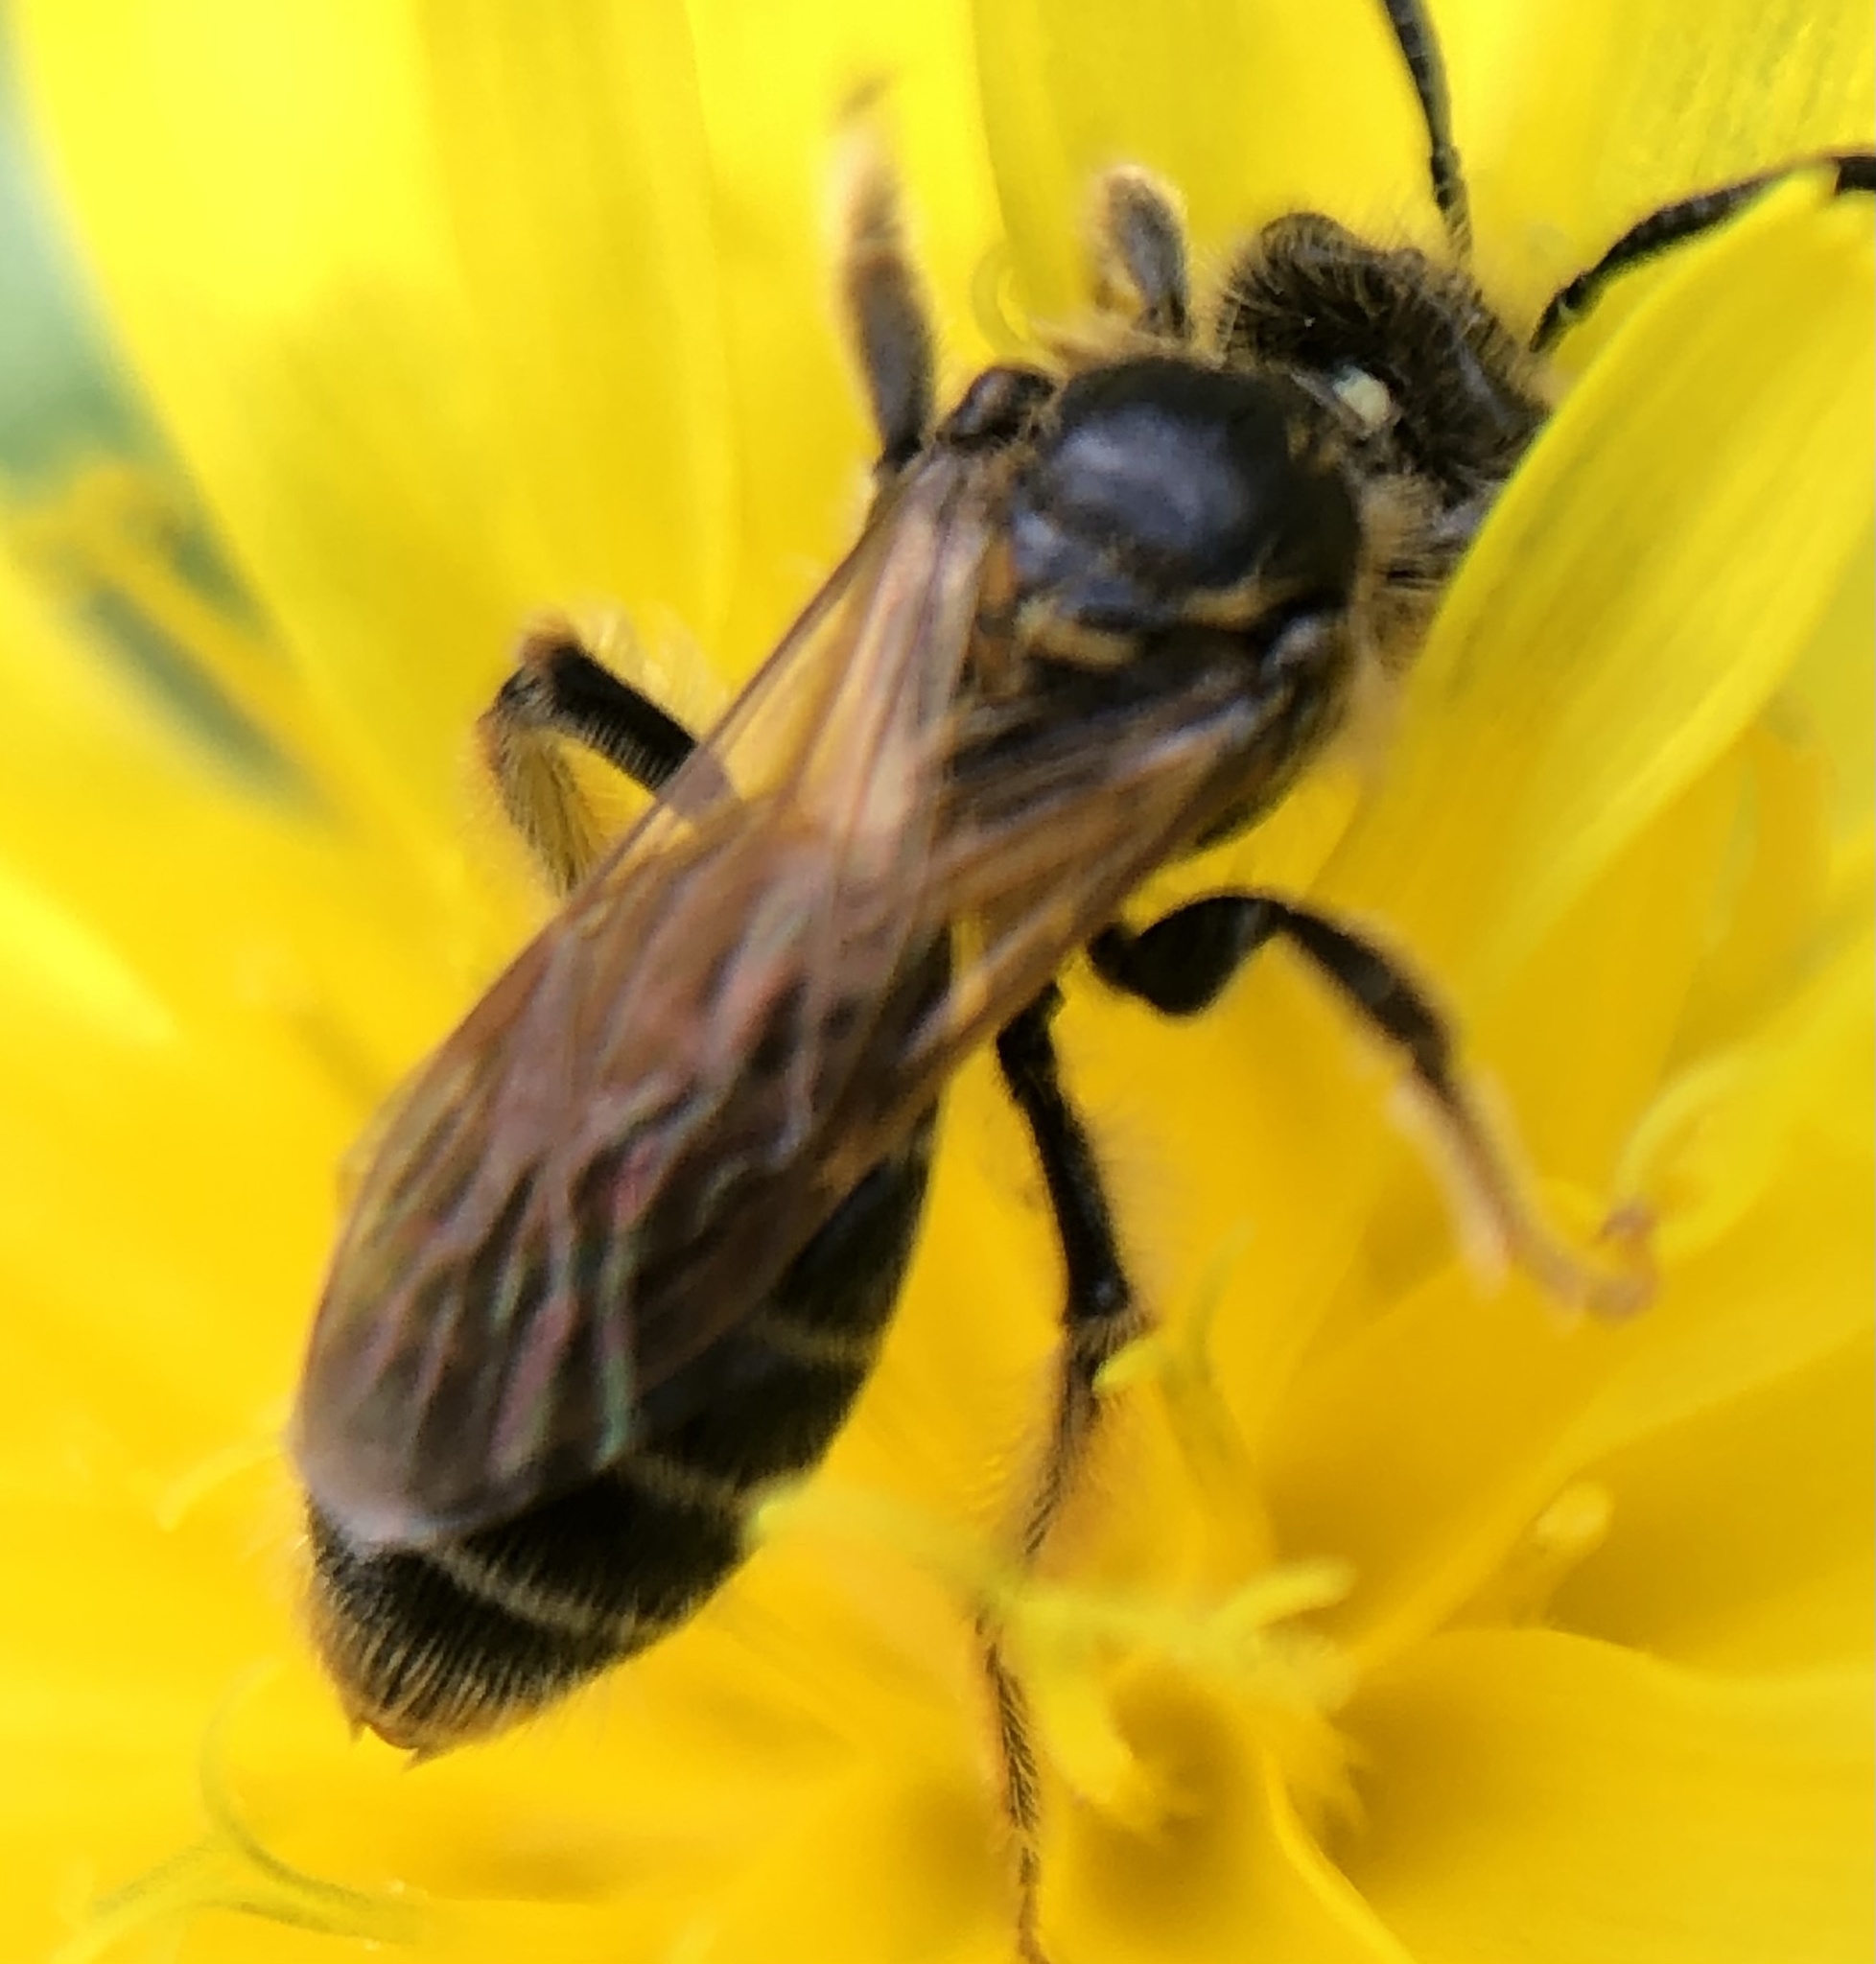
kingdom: Animalia
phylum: Arthropoda
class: Insecta
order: Hymenoptera
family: Andrenidae
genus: Andrena
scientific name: Andrena miserabilis
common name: Miserable mining bee
